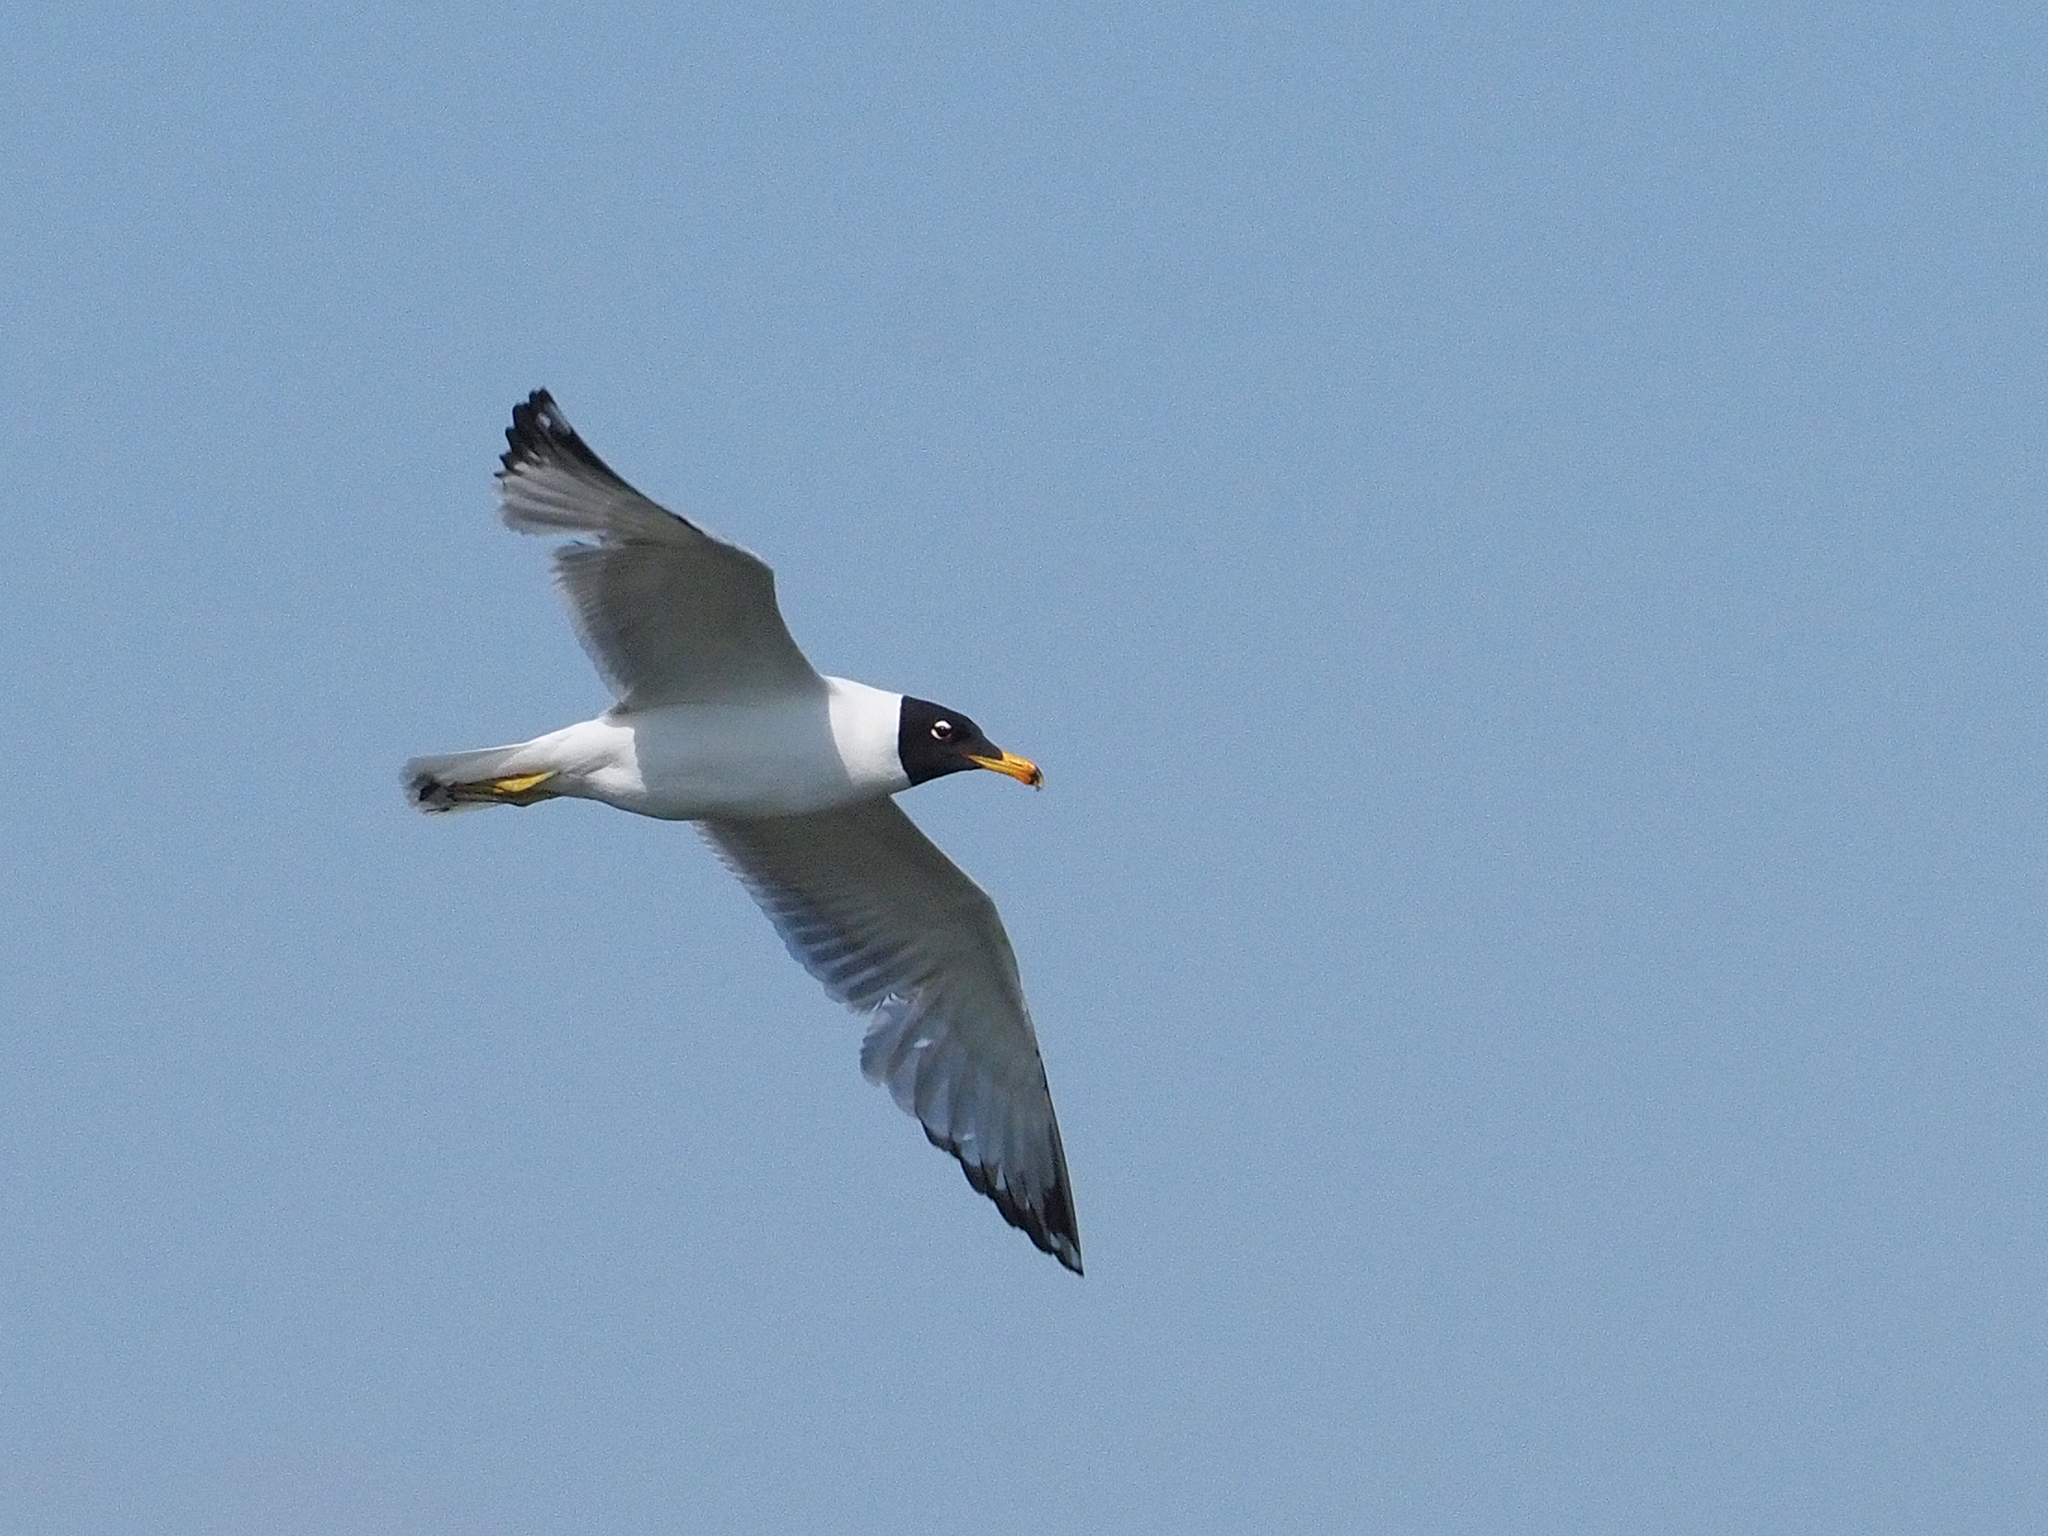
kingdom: Animalia
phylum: Chordata
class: Aves
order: Charadriiformes
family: Laridae
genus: Ichthyaetus
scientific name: Ichthyaetus ichthyaetus
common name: Pallas's gull
